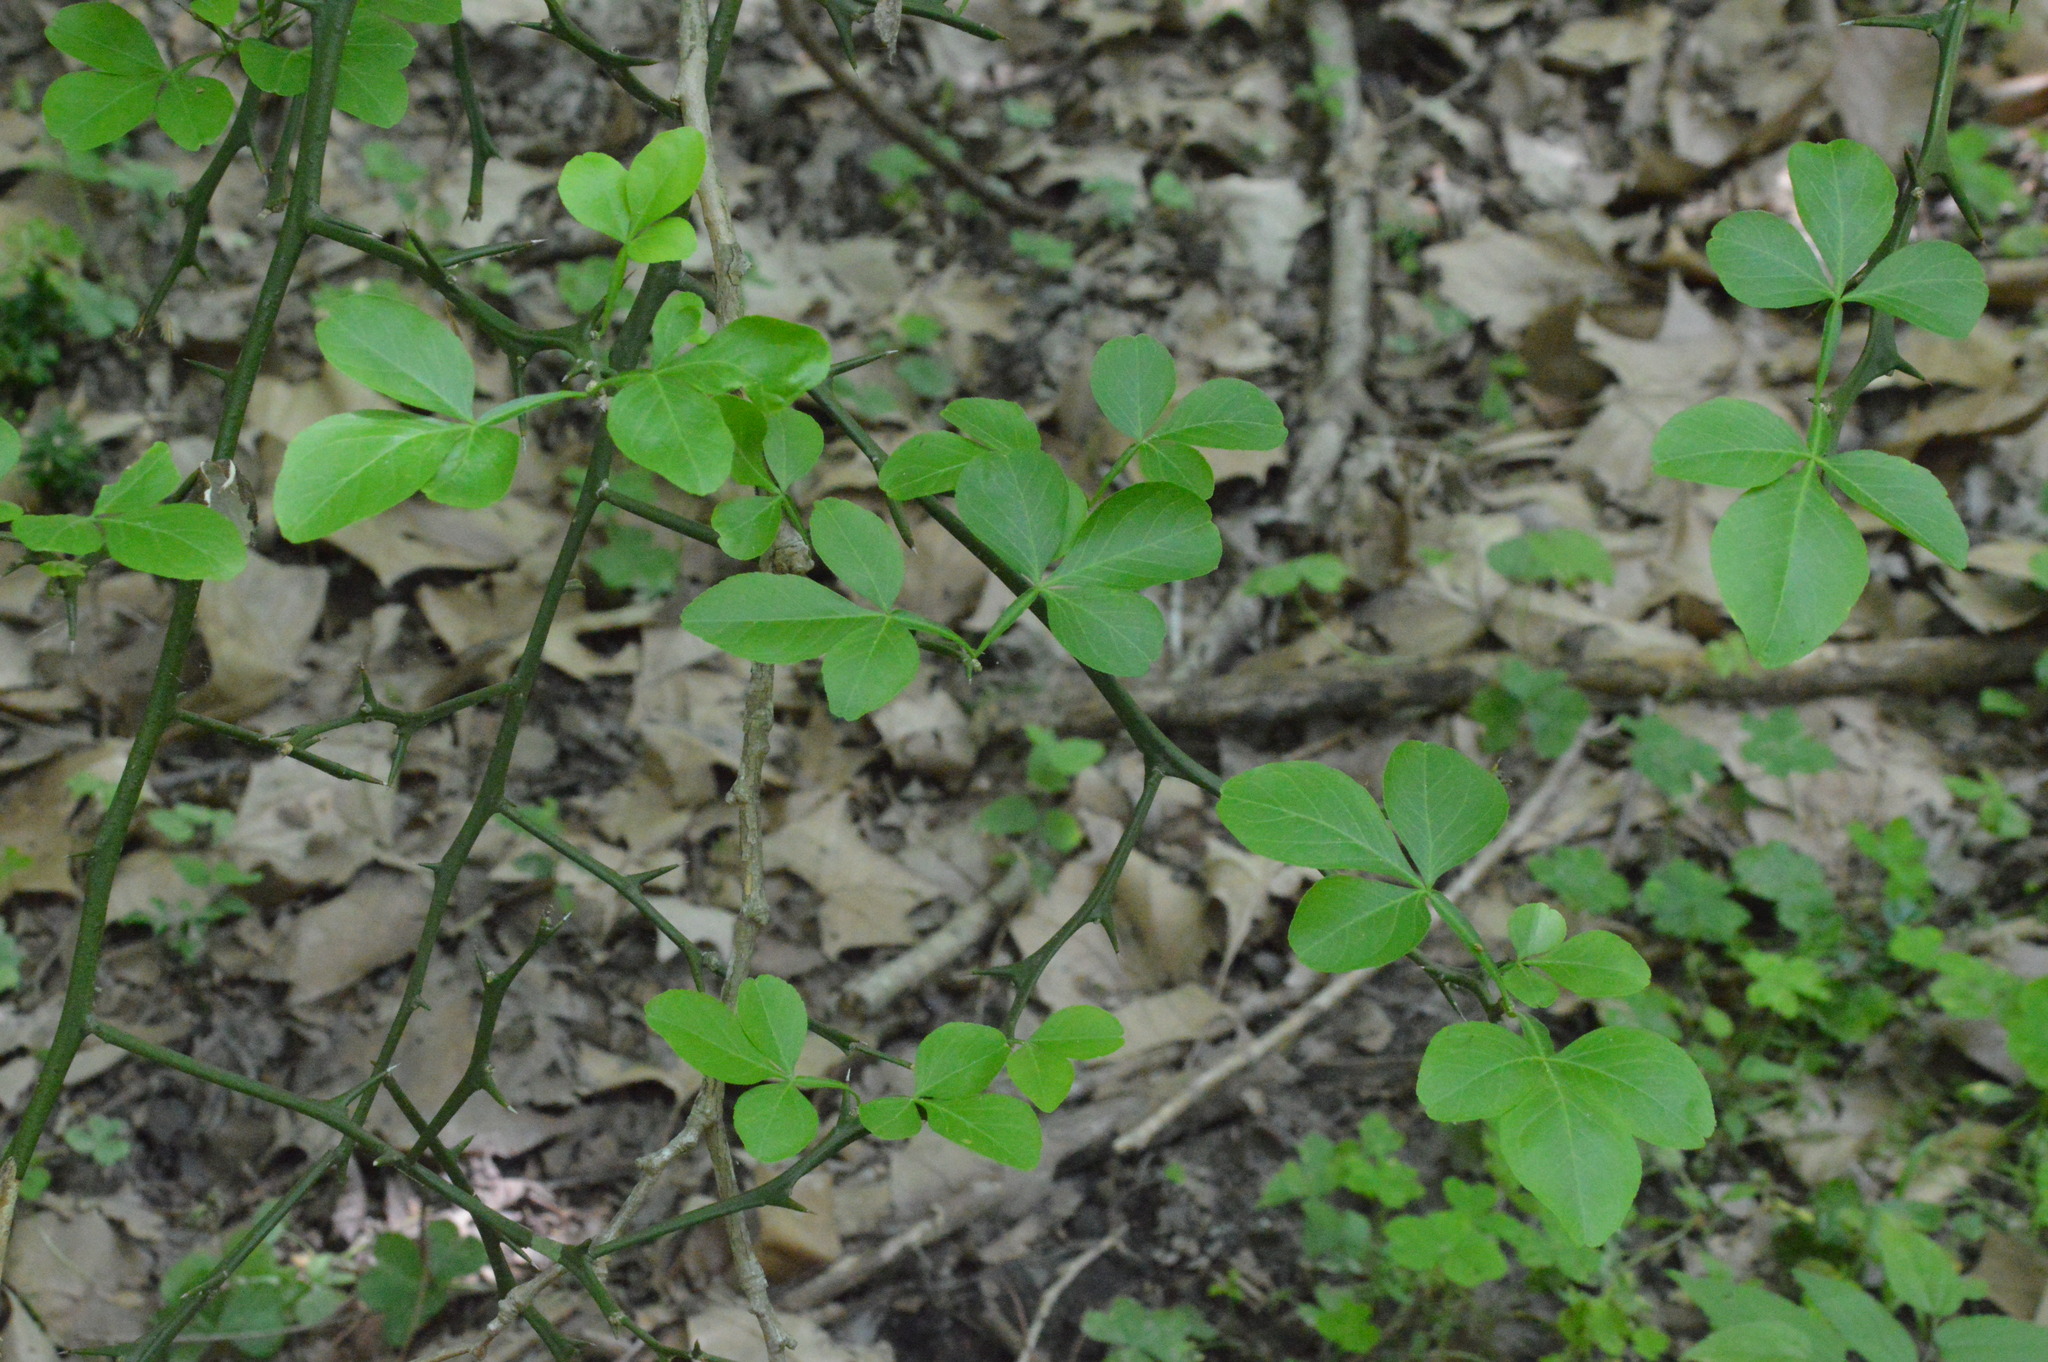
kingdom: Plantae
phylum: Tracheophyta
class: Magnoliopsida
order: Sapindales
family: Rutaceae
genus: Citrus
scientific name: Citrus trifoliata
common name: Japanese bitter-orange
